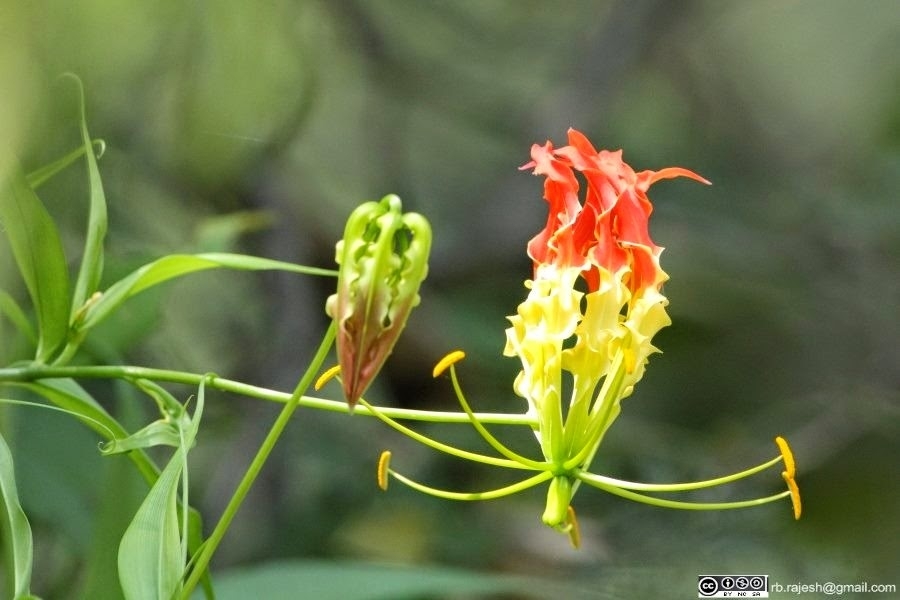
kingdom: Plantae
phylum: Tracheophyta
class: Liliopsida
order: Liliales
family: Colchicaceae
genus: Gloriosa
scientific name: Gloriosa superba
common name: Flame lily
